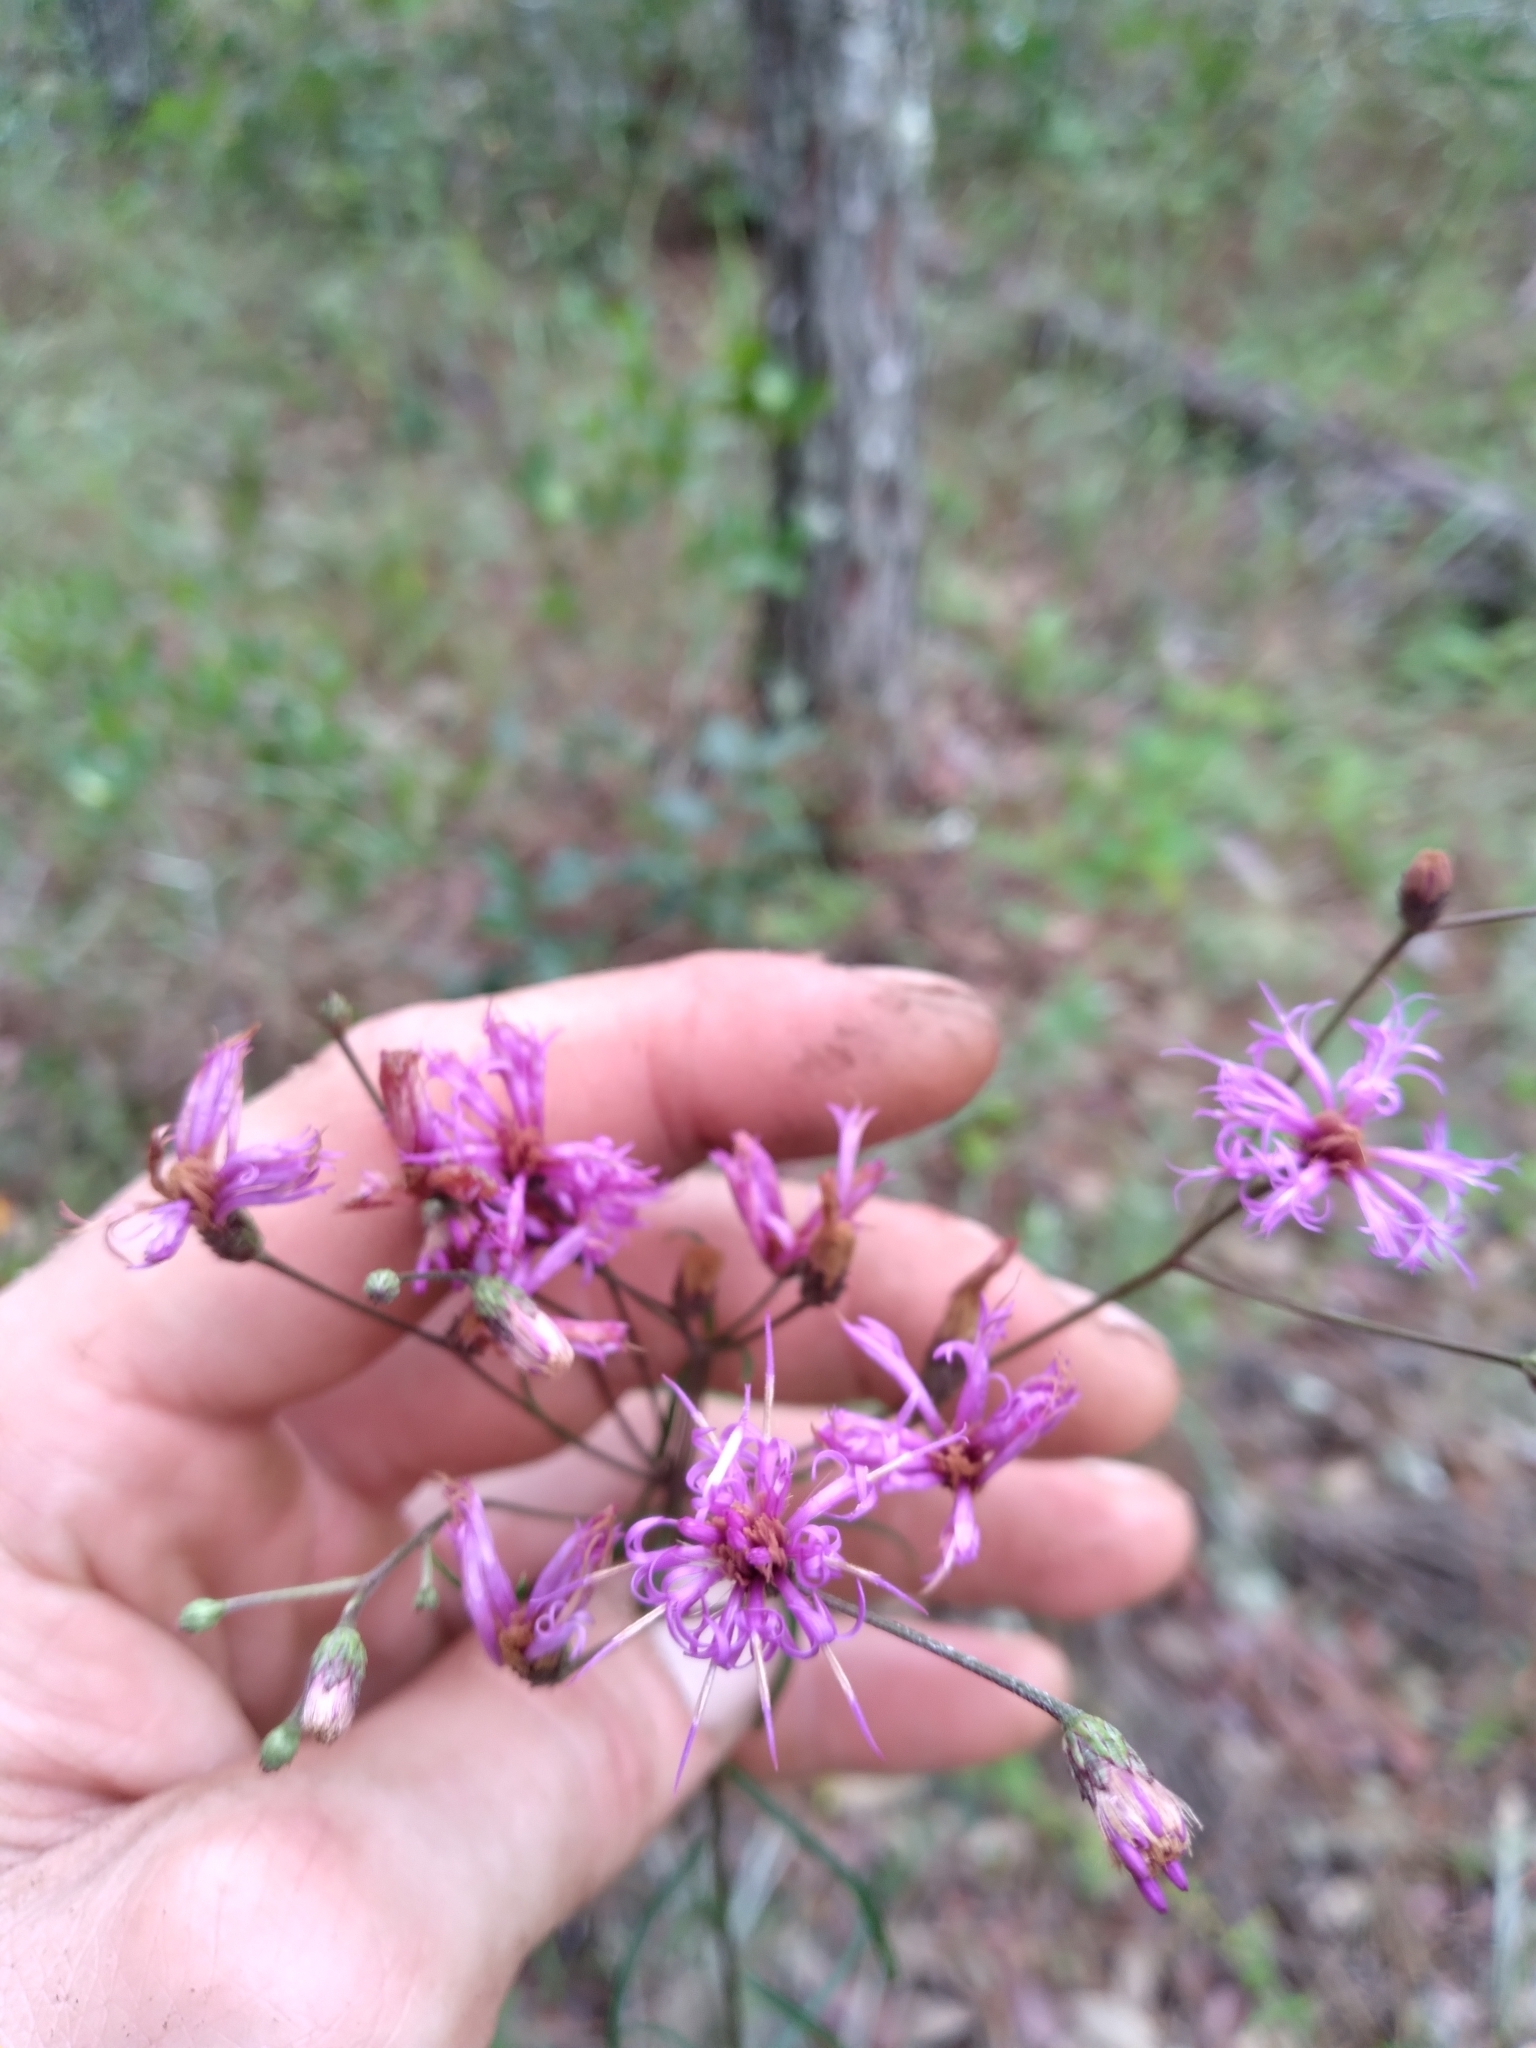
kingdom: Plantae
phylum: Tracheophyta
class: Magnoliopsida
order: Asterales
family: Asteraceae
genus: Vernonia
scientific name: Vernonia angustifolia
